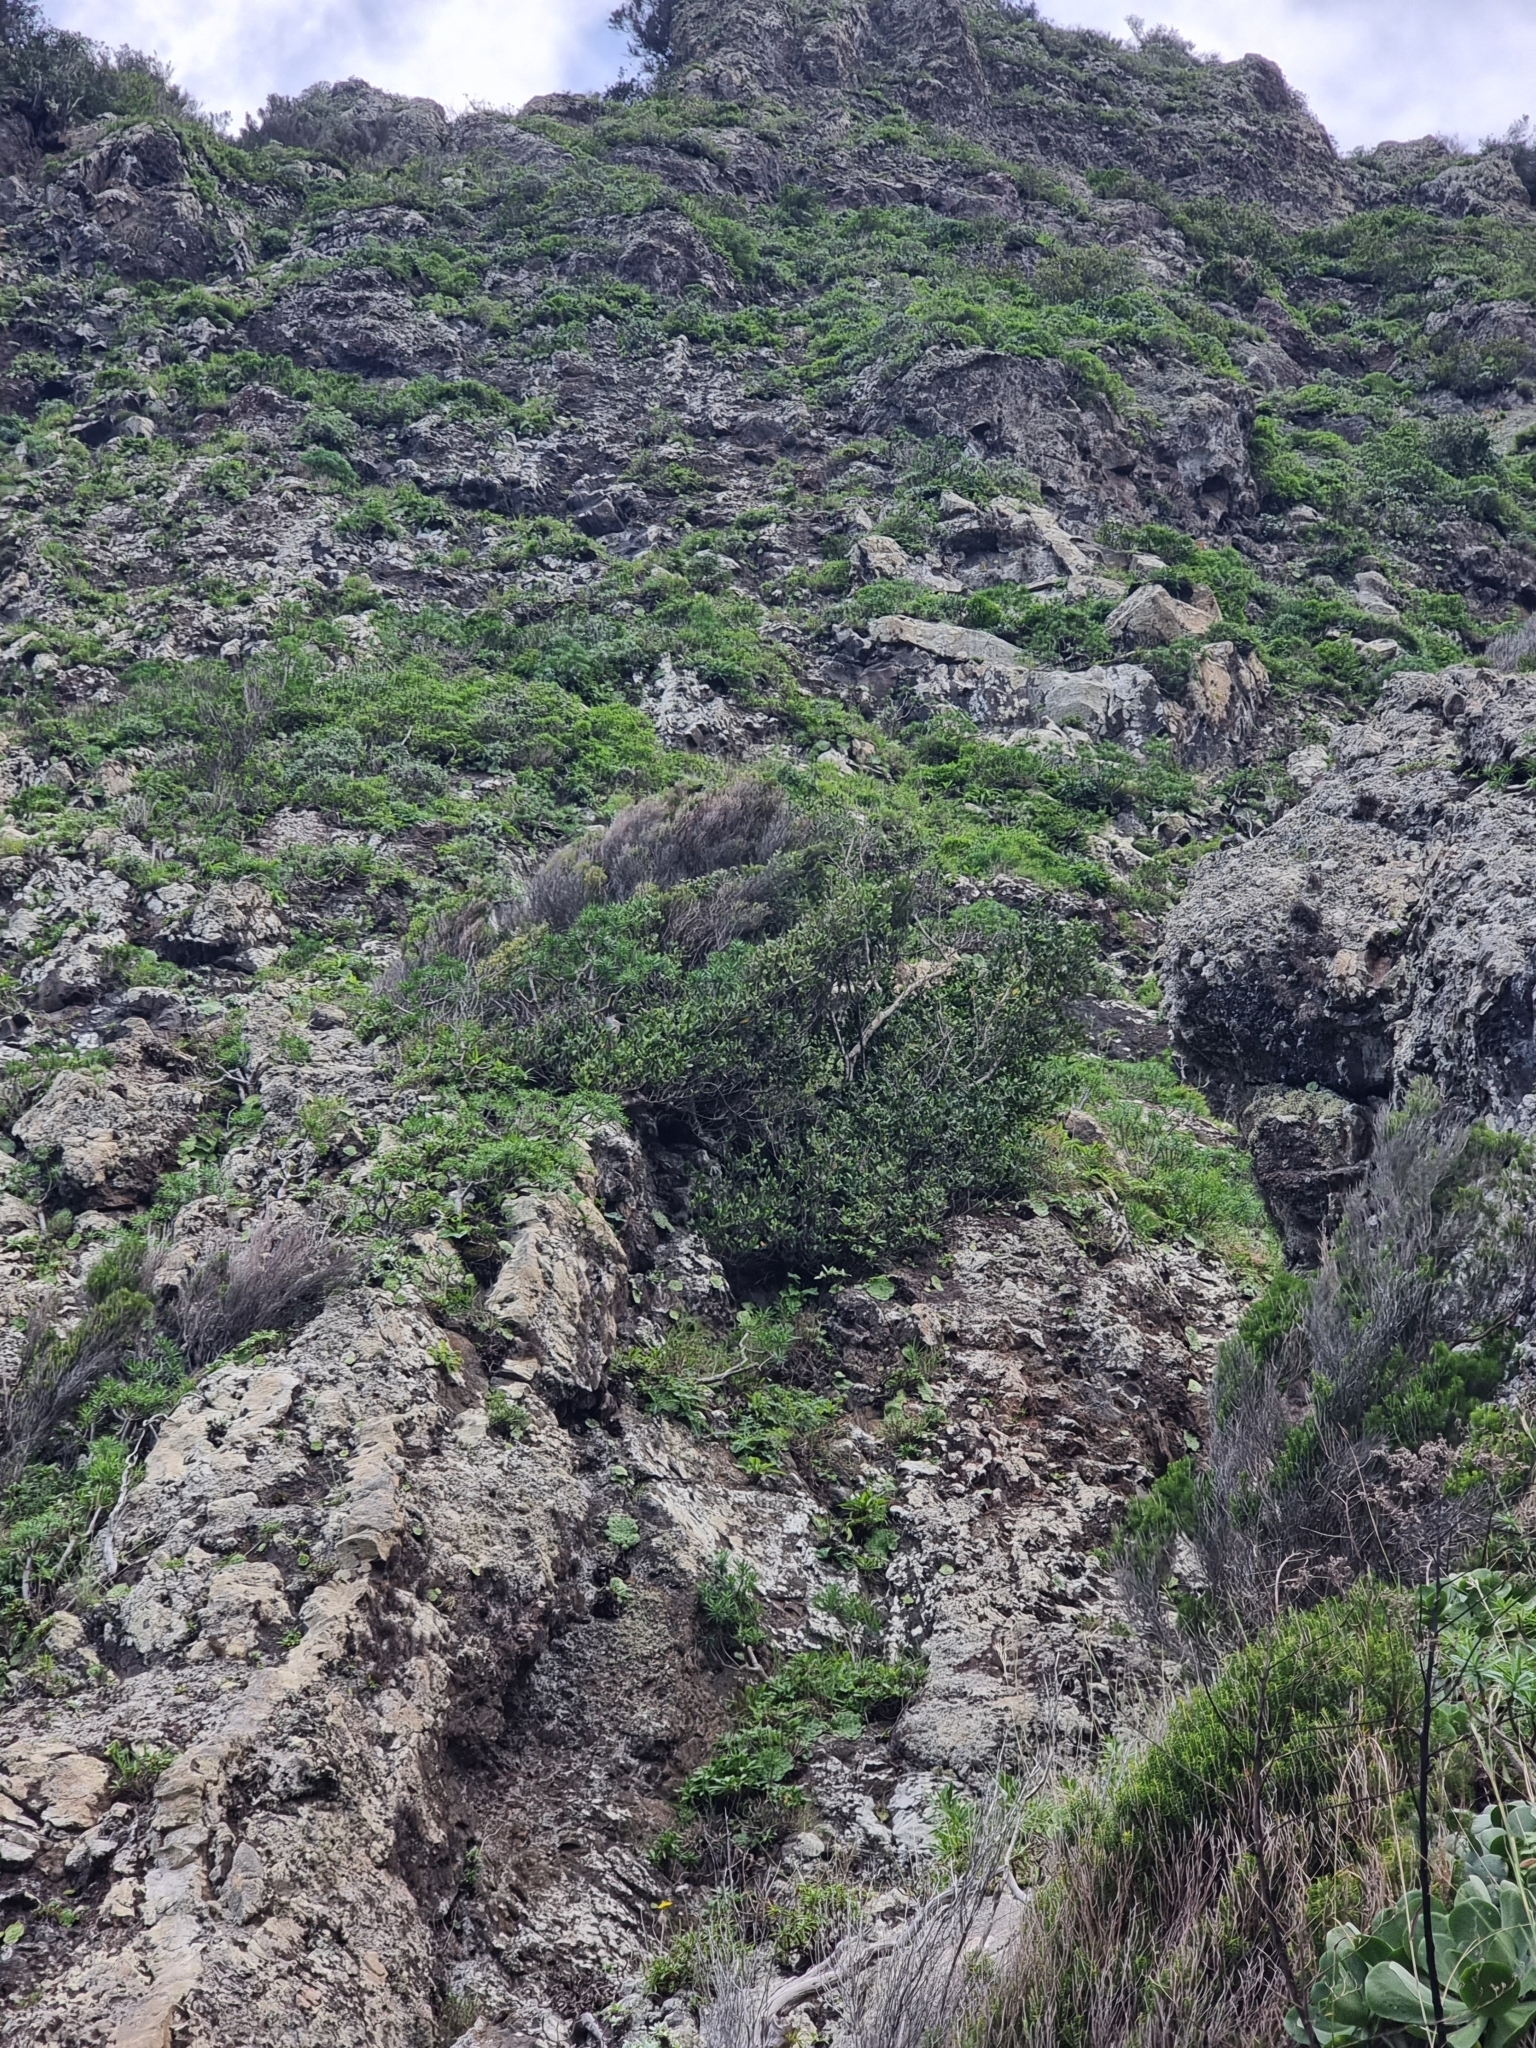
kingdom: Plantae
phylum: Tracheophyta
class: Magnoliopsida
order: Ericales
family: Sapotaceae
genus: Sideroxylon
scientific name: Sideroxylon mirmulans
